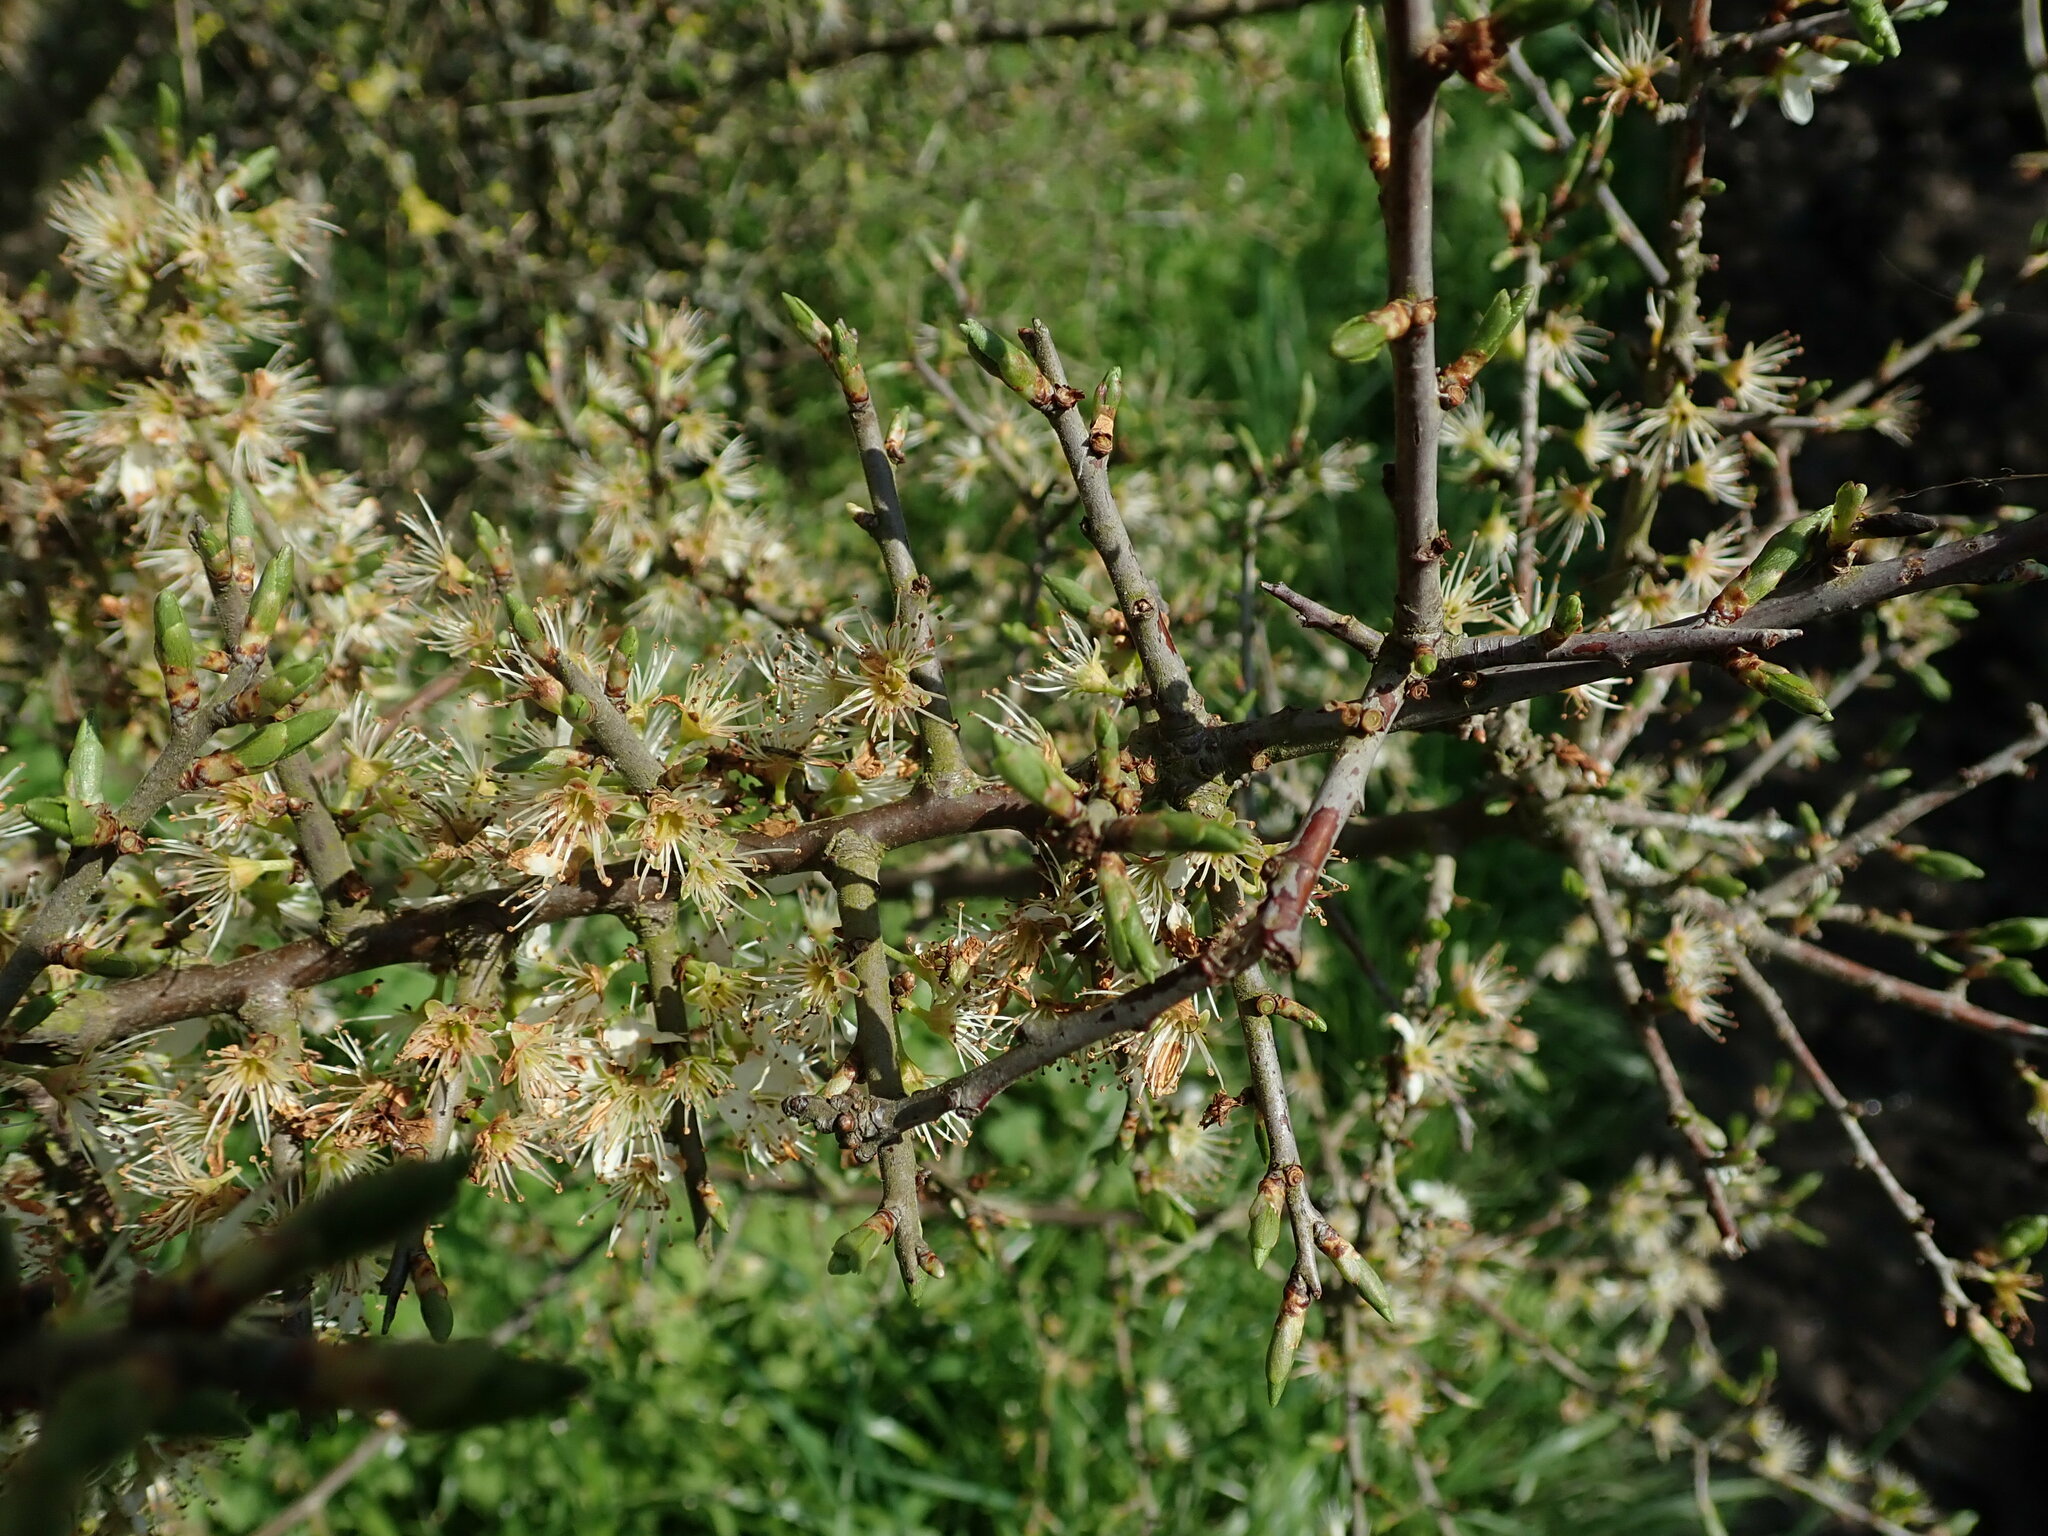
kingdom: Plantae
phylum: Tracheophyta
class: Magnoliopsida
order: Rosales
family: Rosaceae
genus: Prunus
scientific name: Prunus spinosa
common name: Blackthorn
